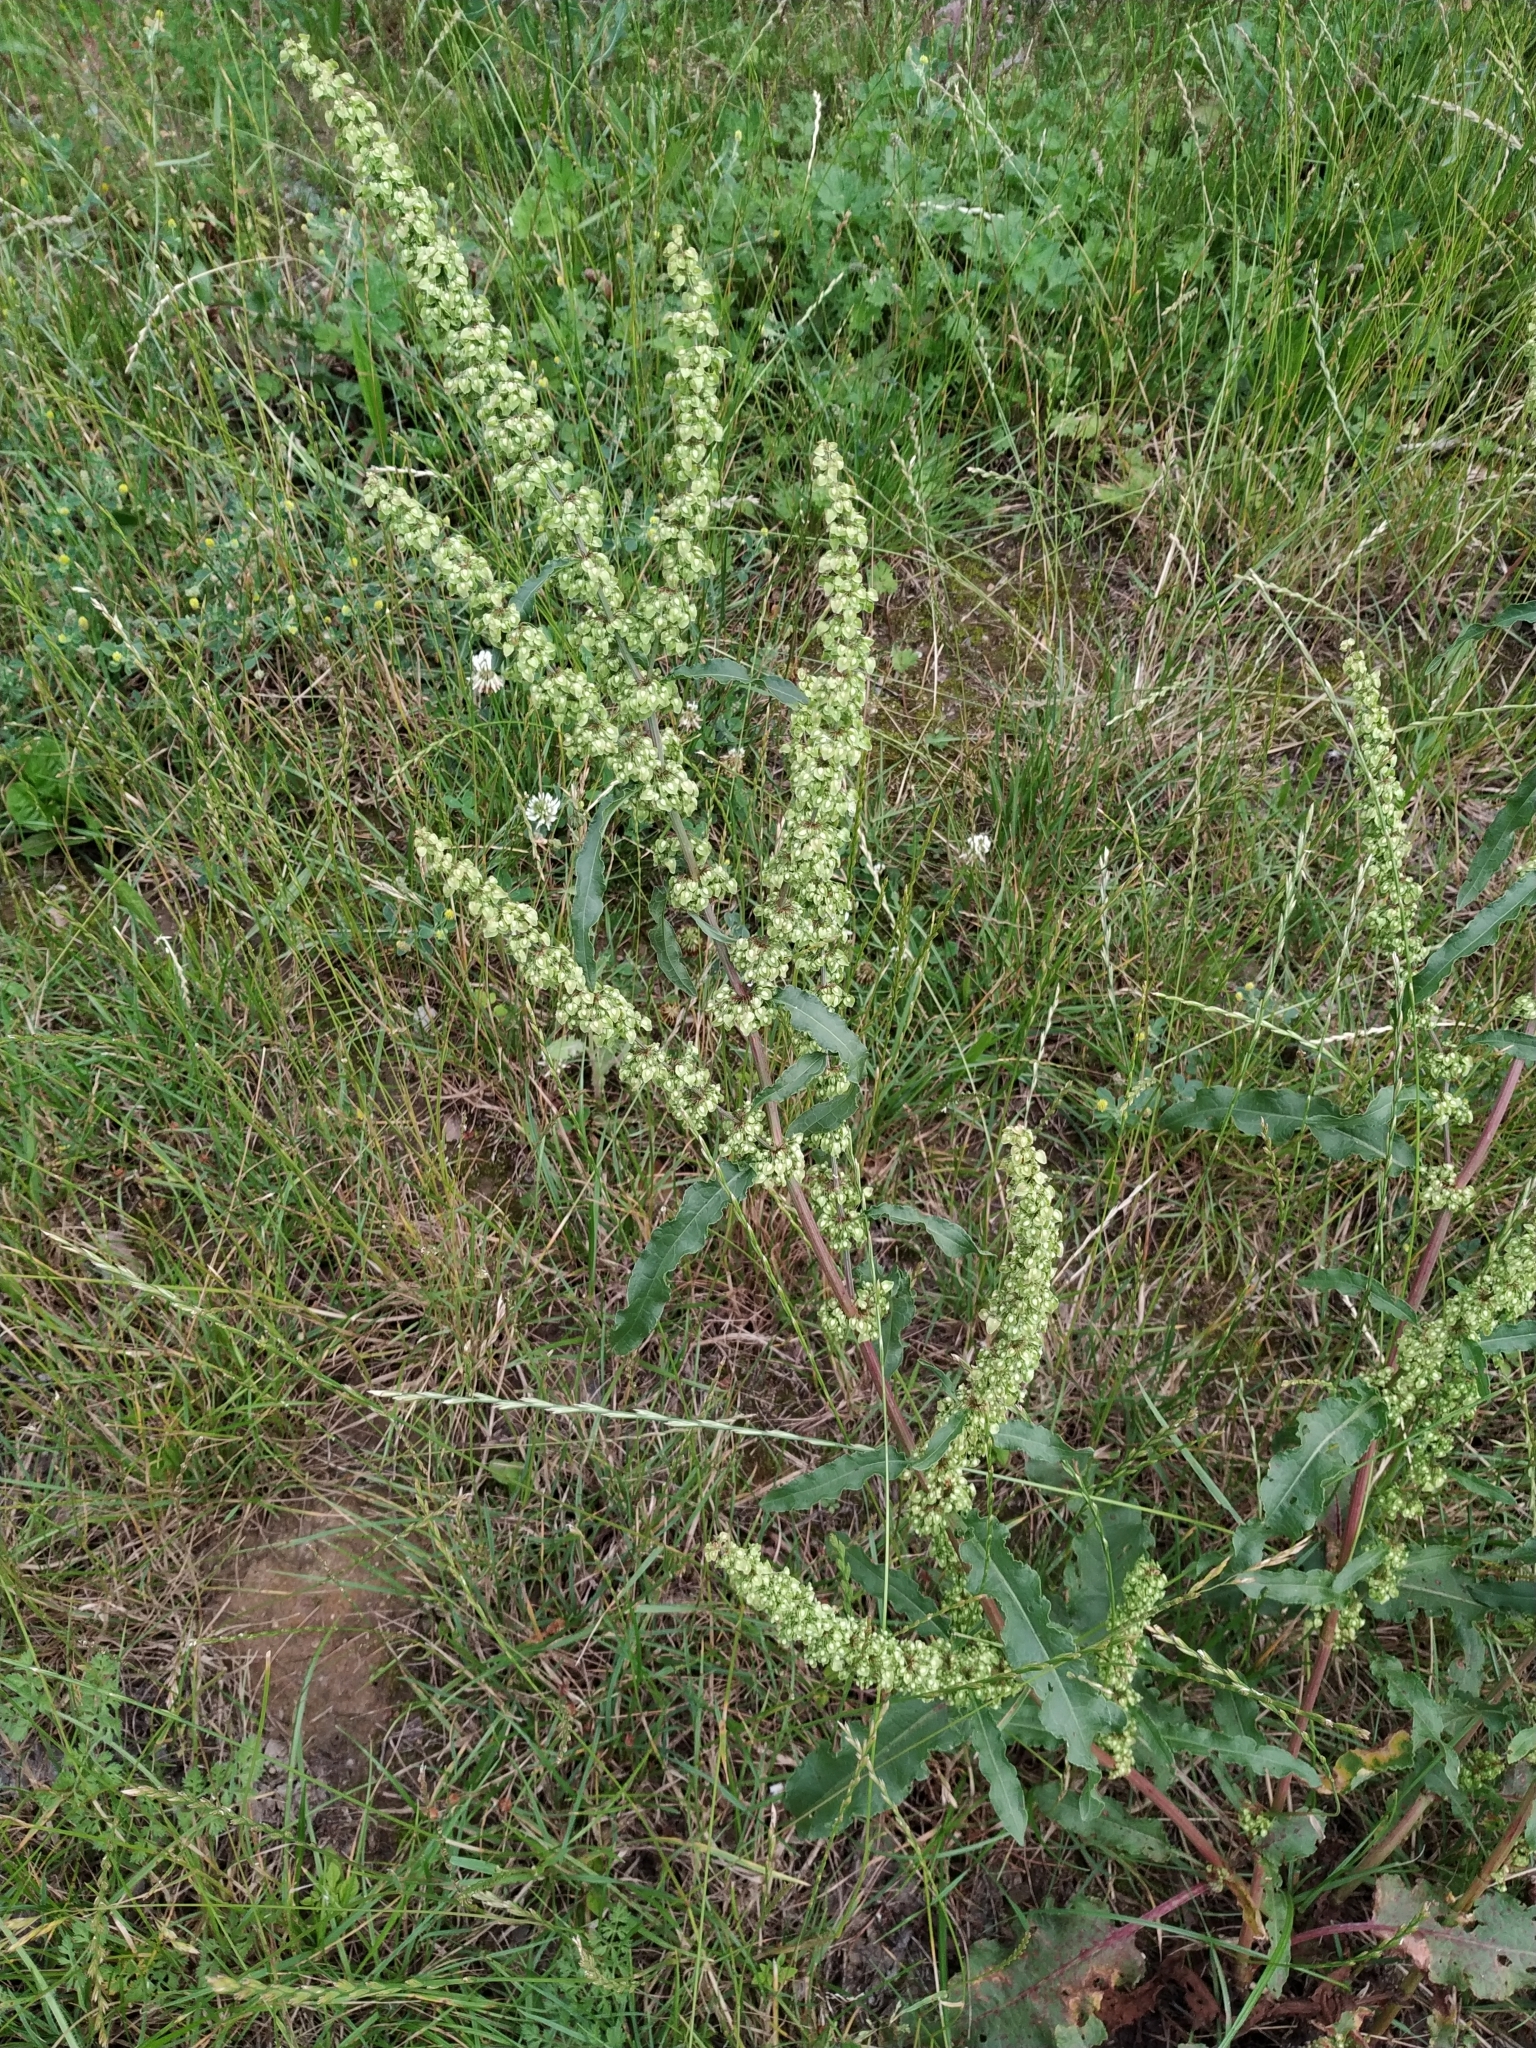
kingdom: Plantae
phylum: Tracheophyta
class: Magnoliopsida
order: Caryophyllales
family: Polygonaceae
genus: Rumex
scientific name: Rumex crispus
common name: Curled dock
